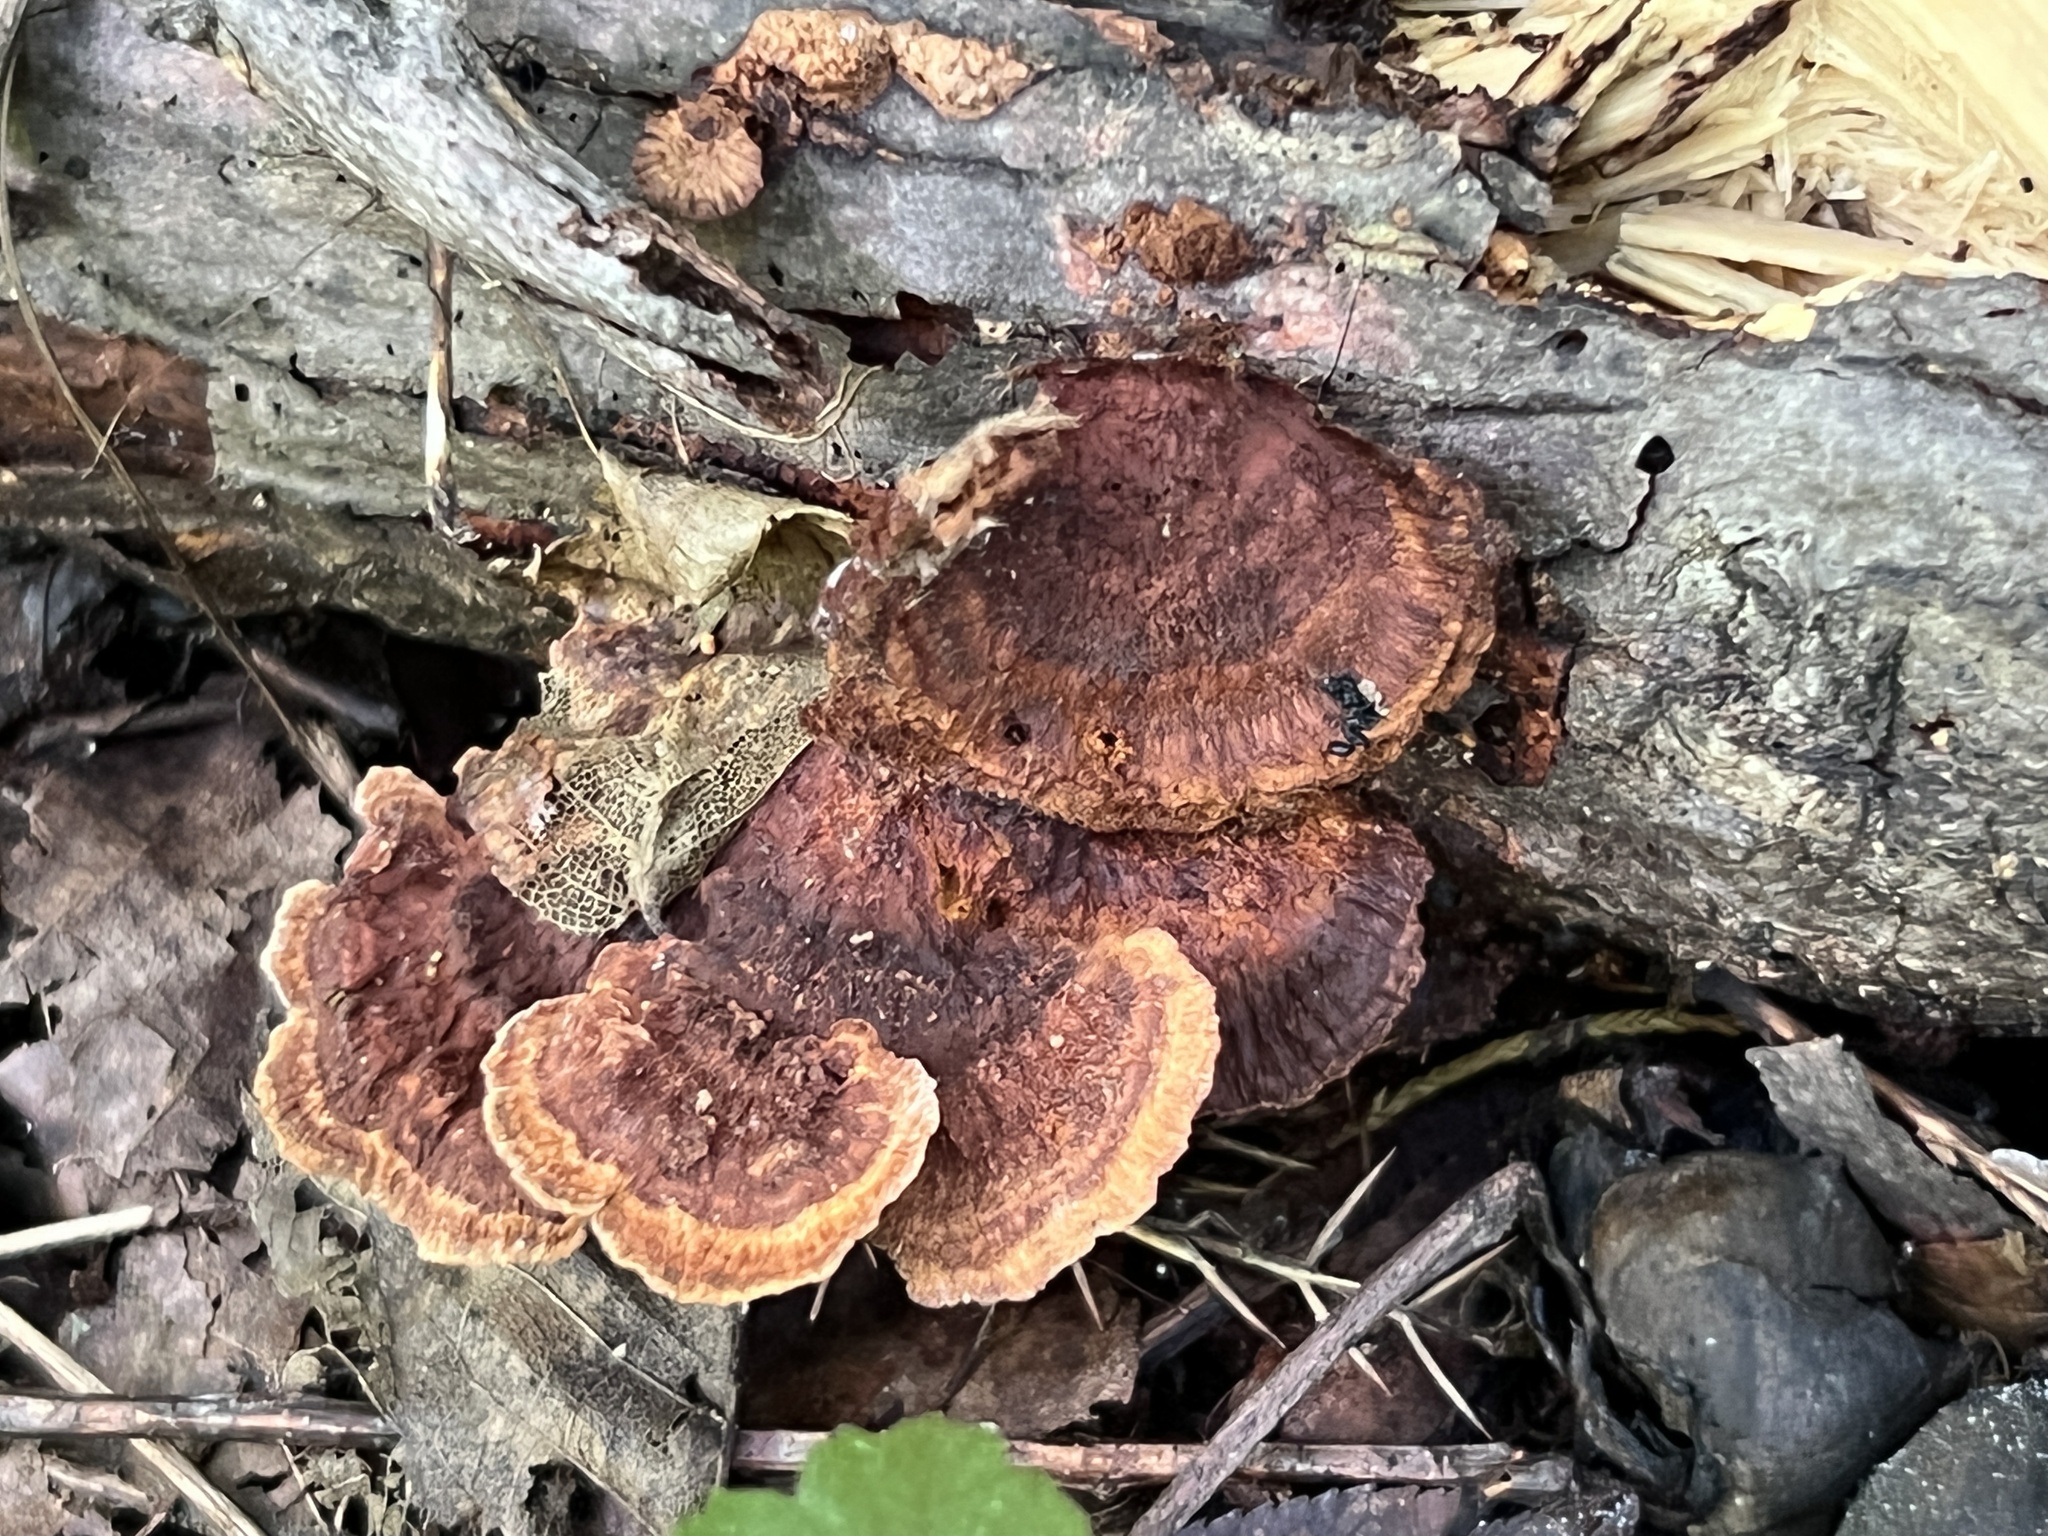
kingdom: Fungi
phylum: Basidiomycota
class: Agaricomycetes
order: Hymenochaetales
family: Hymenochaetaceae
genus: Phellinus
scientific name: Phellinus gilvus
